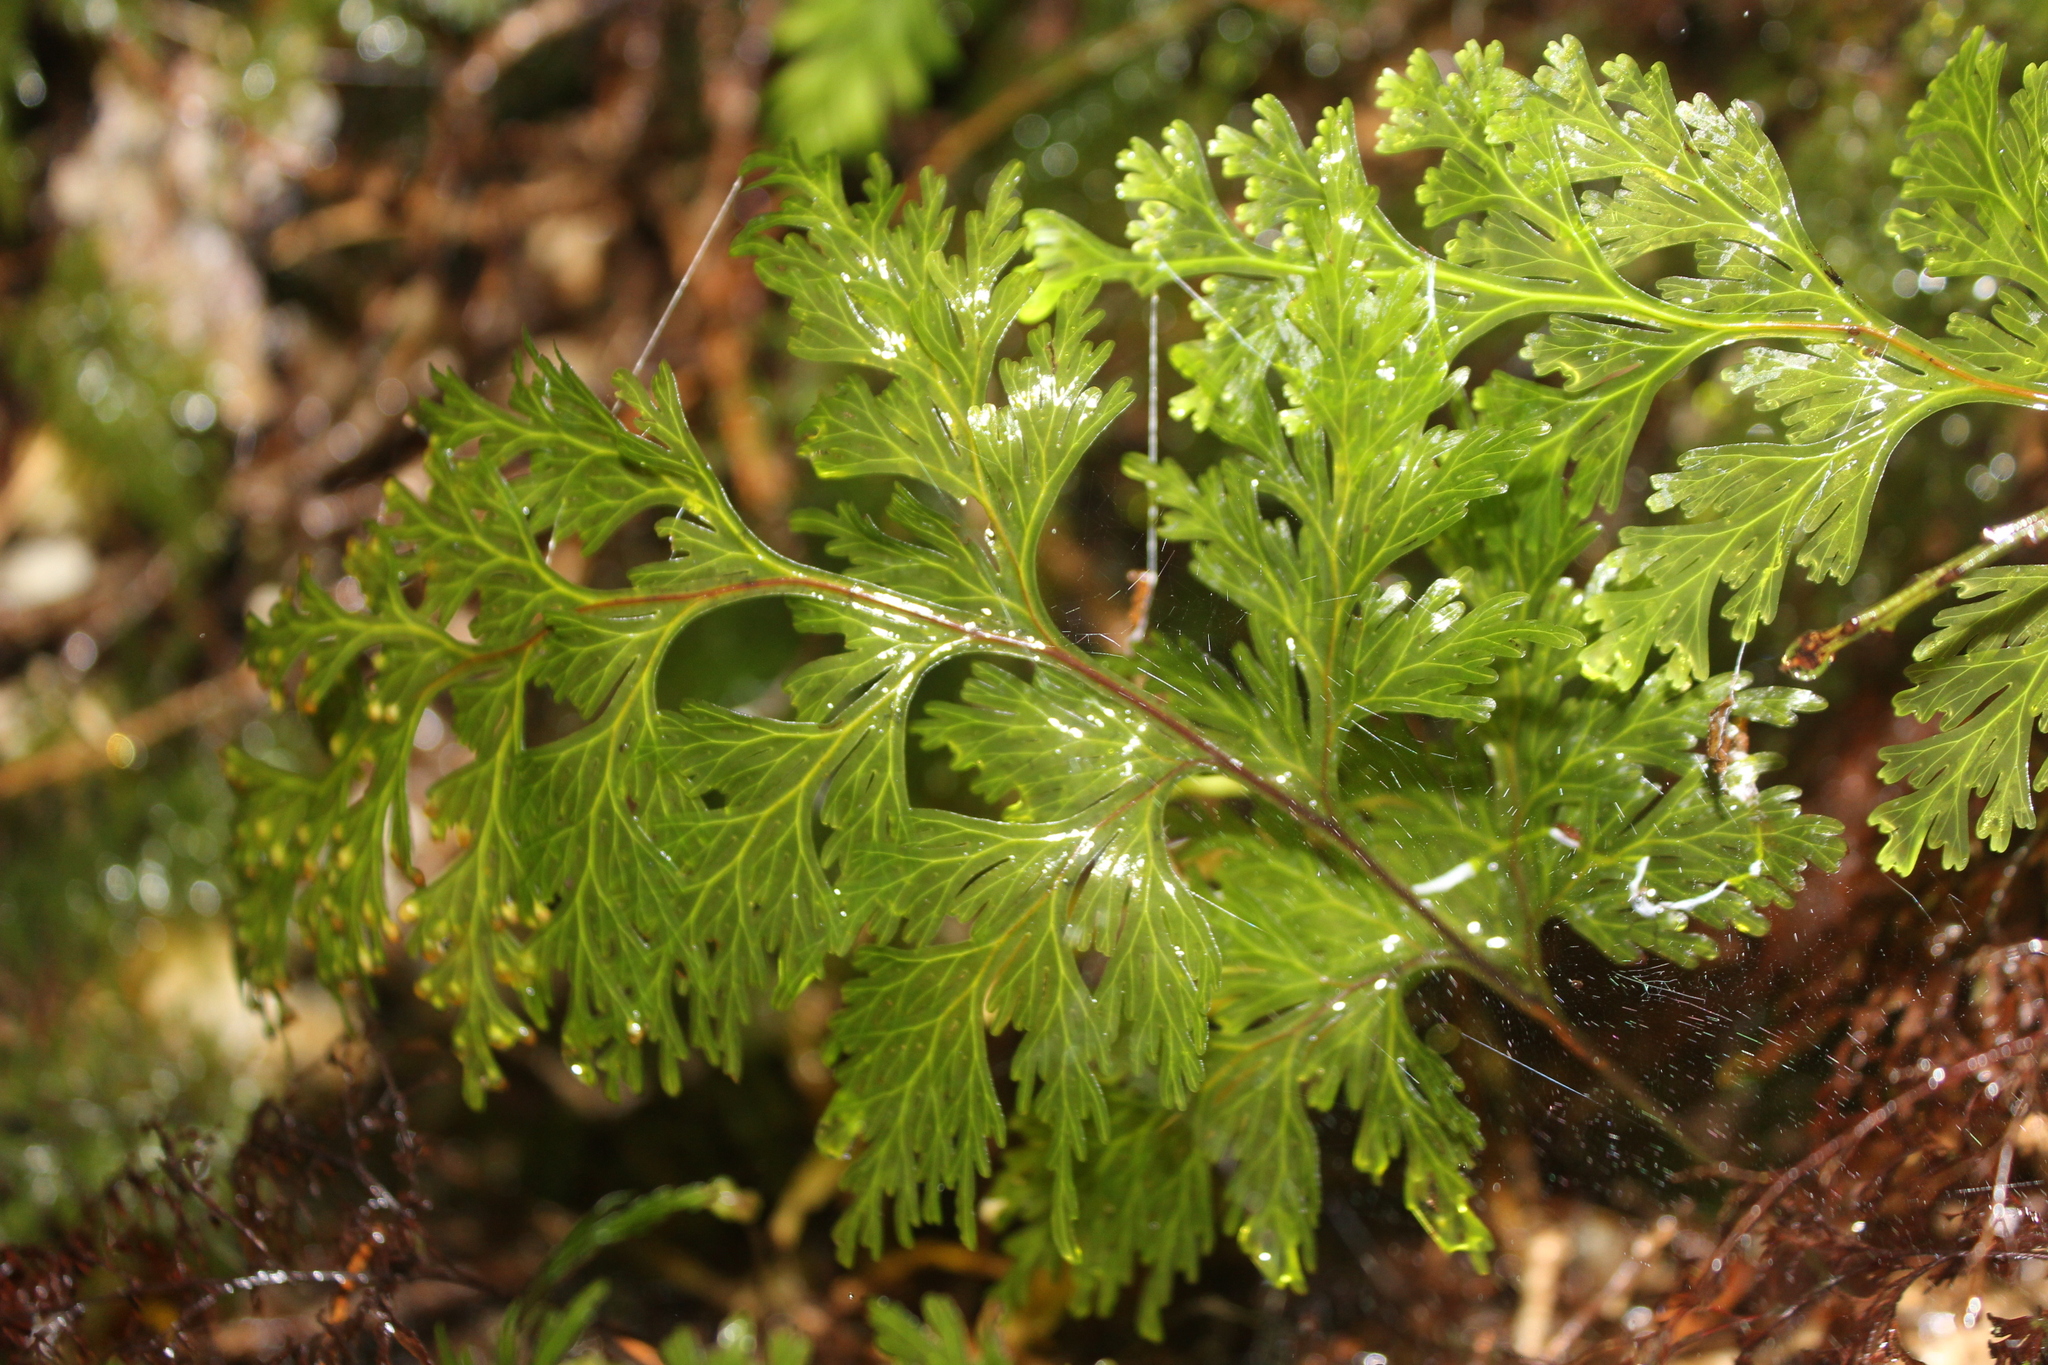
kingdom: Plantae
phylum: Tracheophyta
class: Polypodiopsida
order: Hymenophyllales
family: Hymenophyllaceae
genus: Hymenophyllum
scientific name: Hymenophyllum dilatatum
